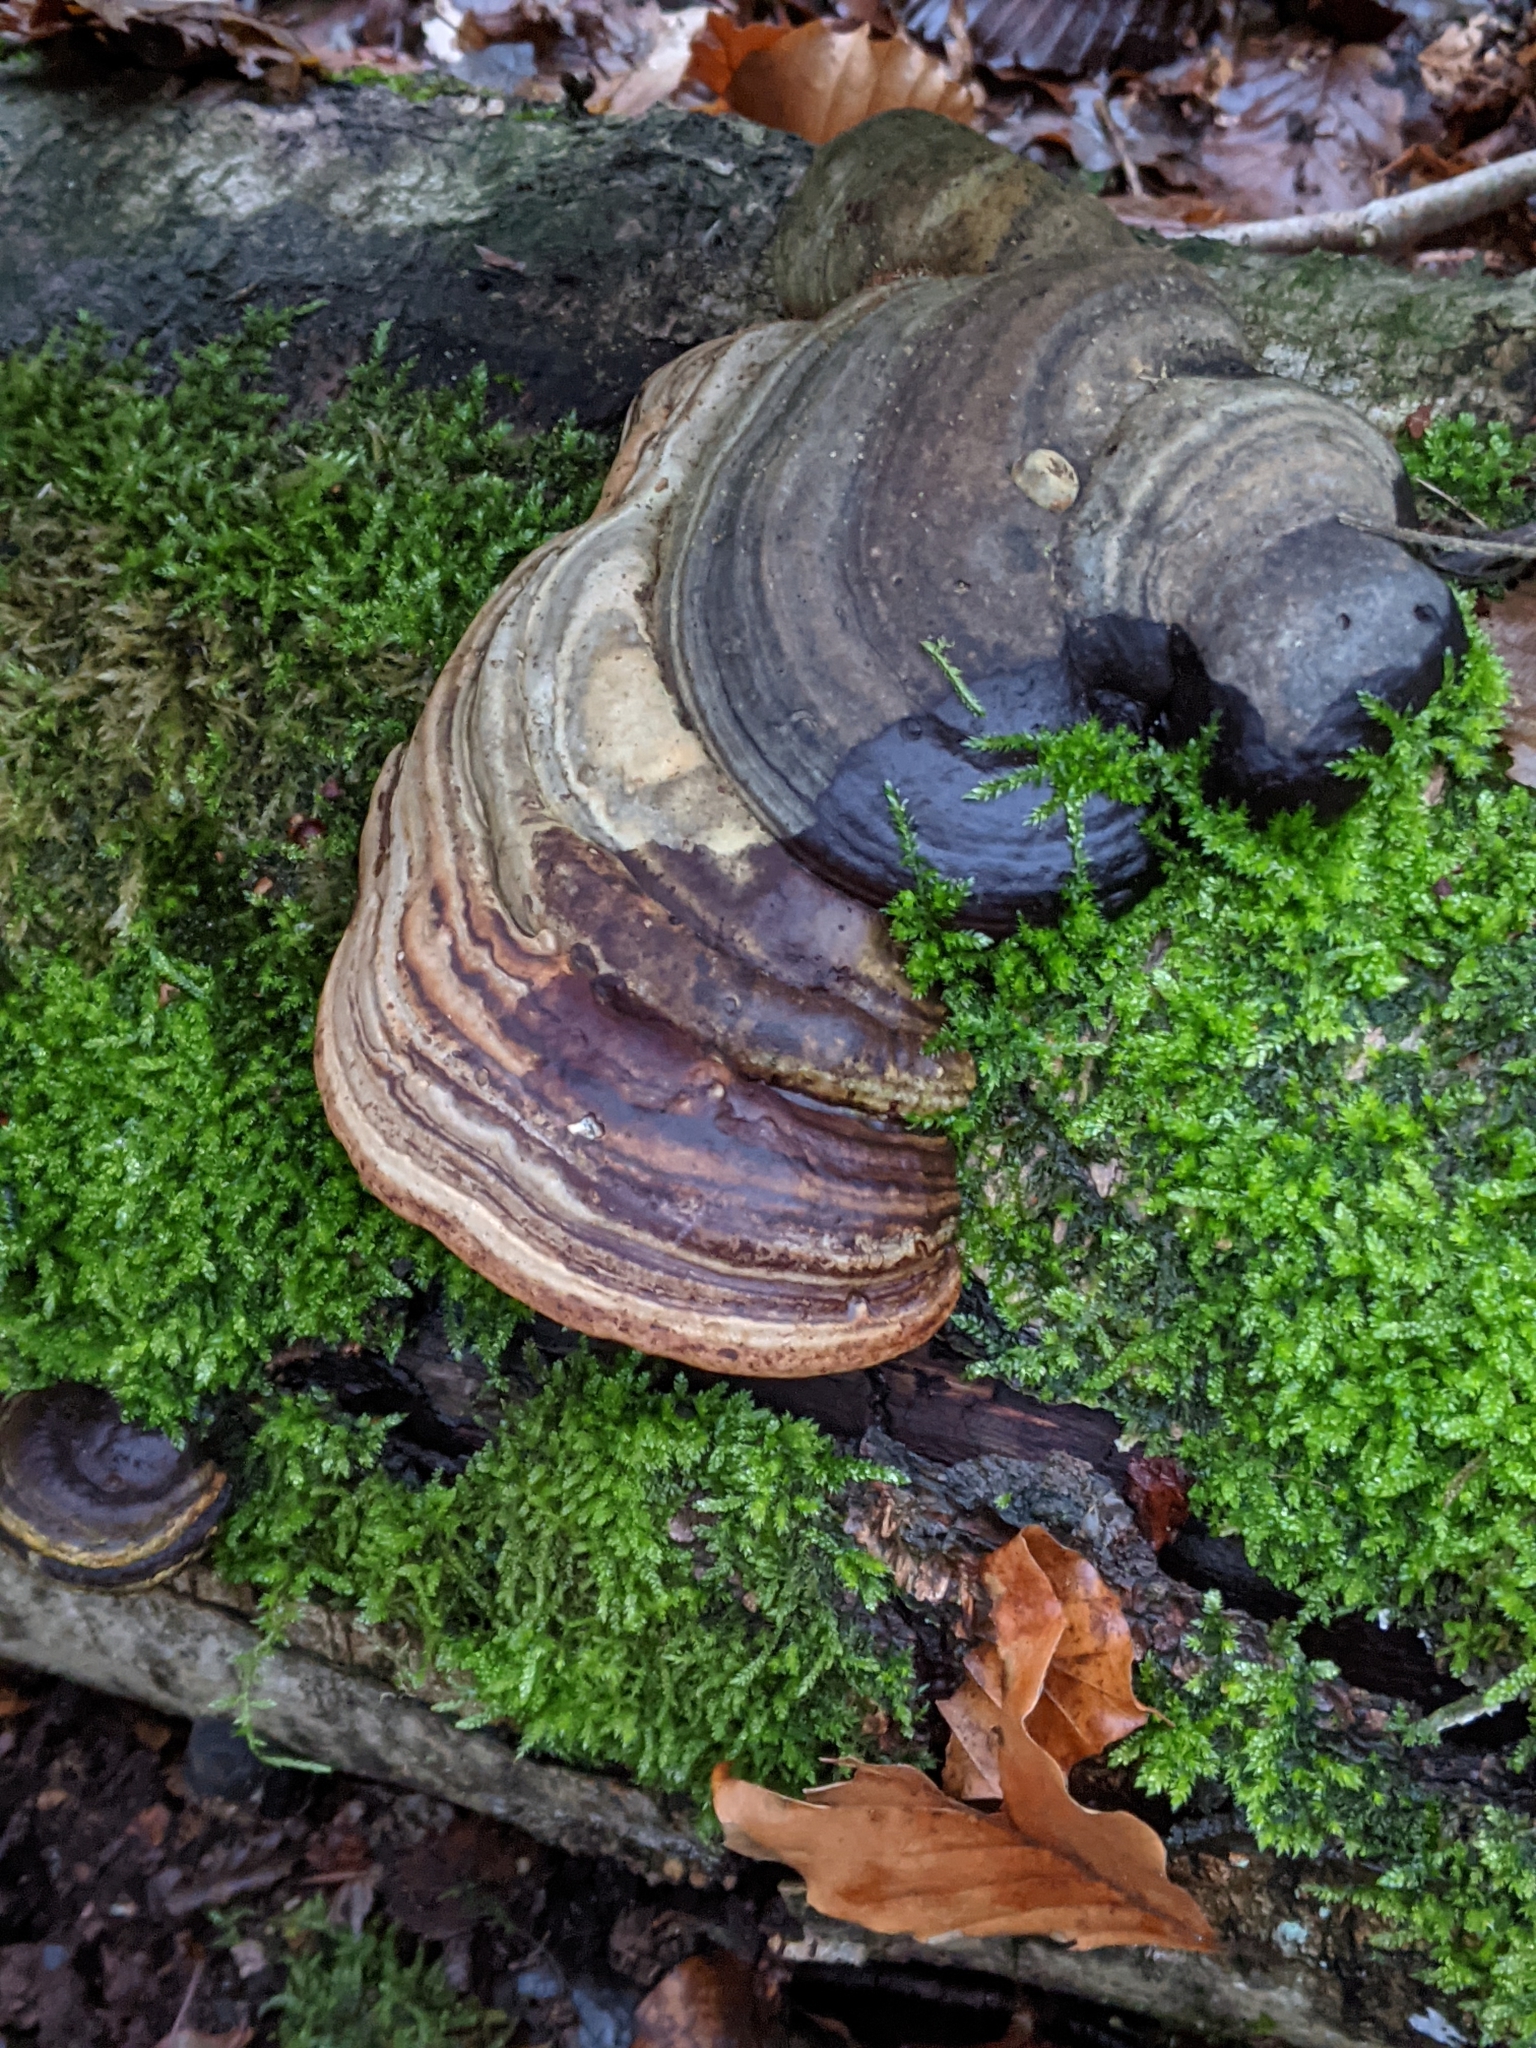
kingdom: Fungi
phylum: Basidiomycota
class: Agaricomycetes
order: Polyporales
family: Polyporaceae
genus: Fomes
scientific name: Fomes fomentarius
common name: Hoof fungus
